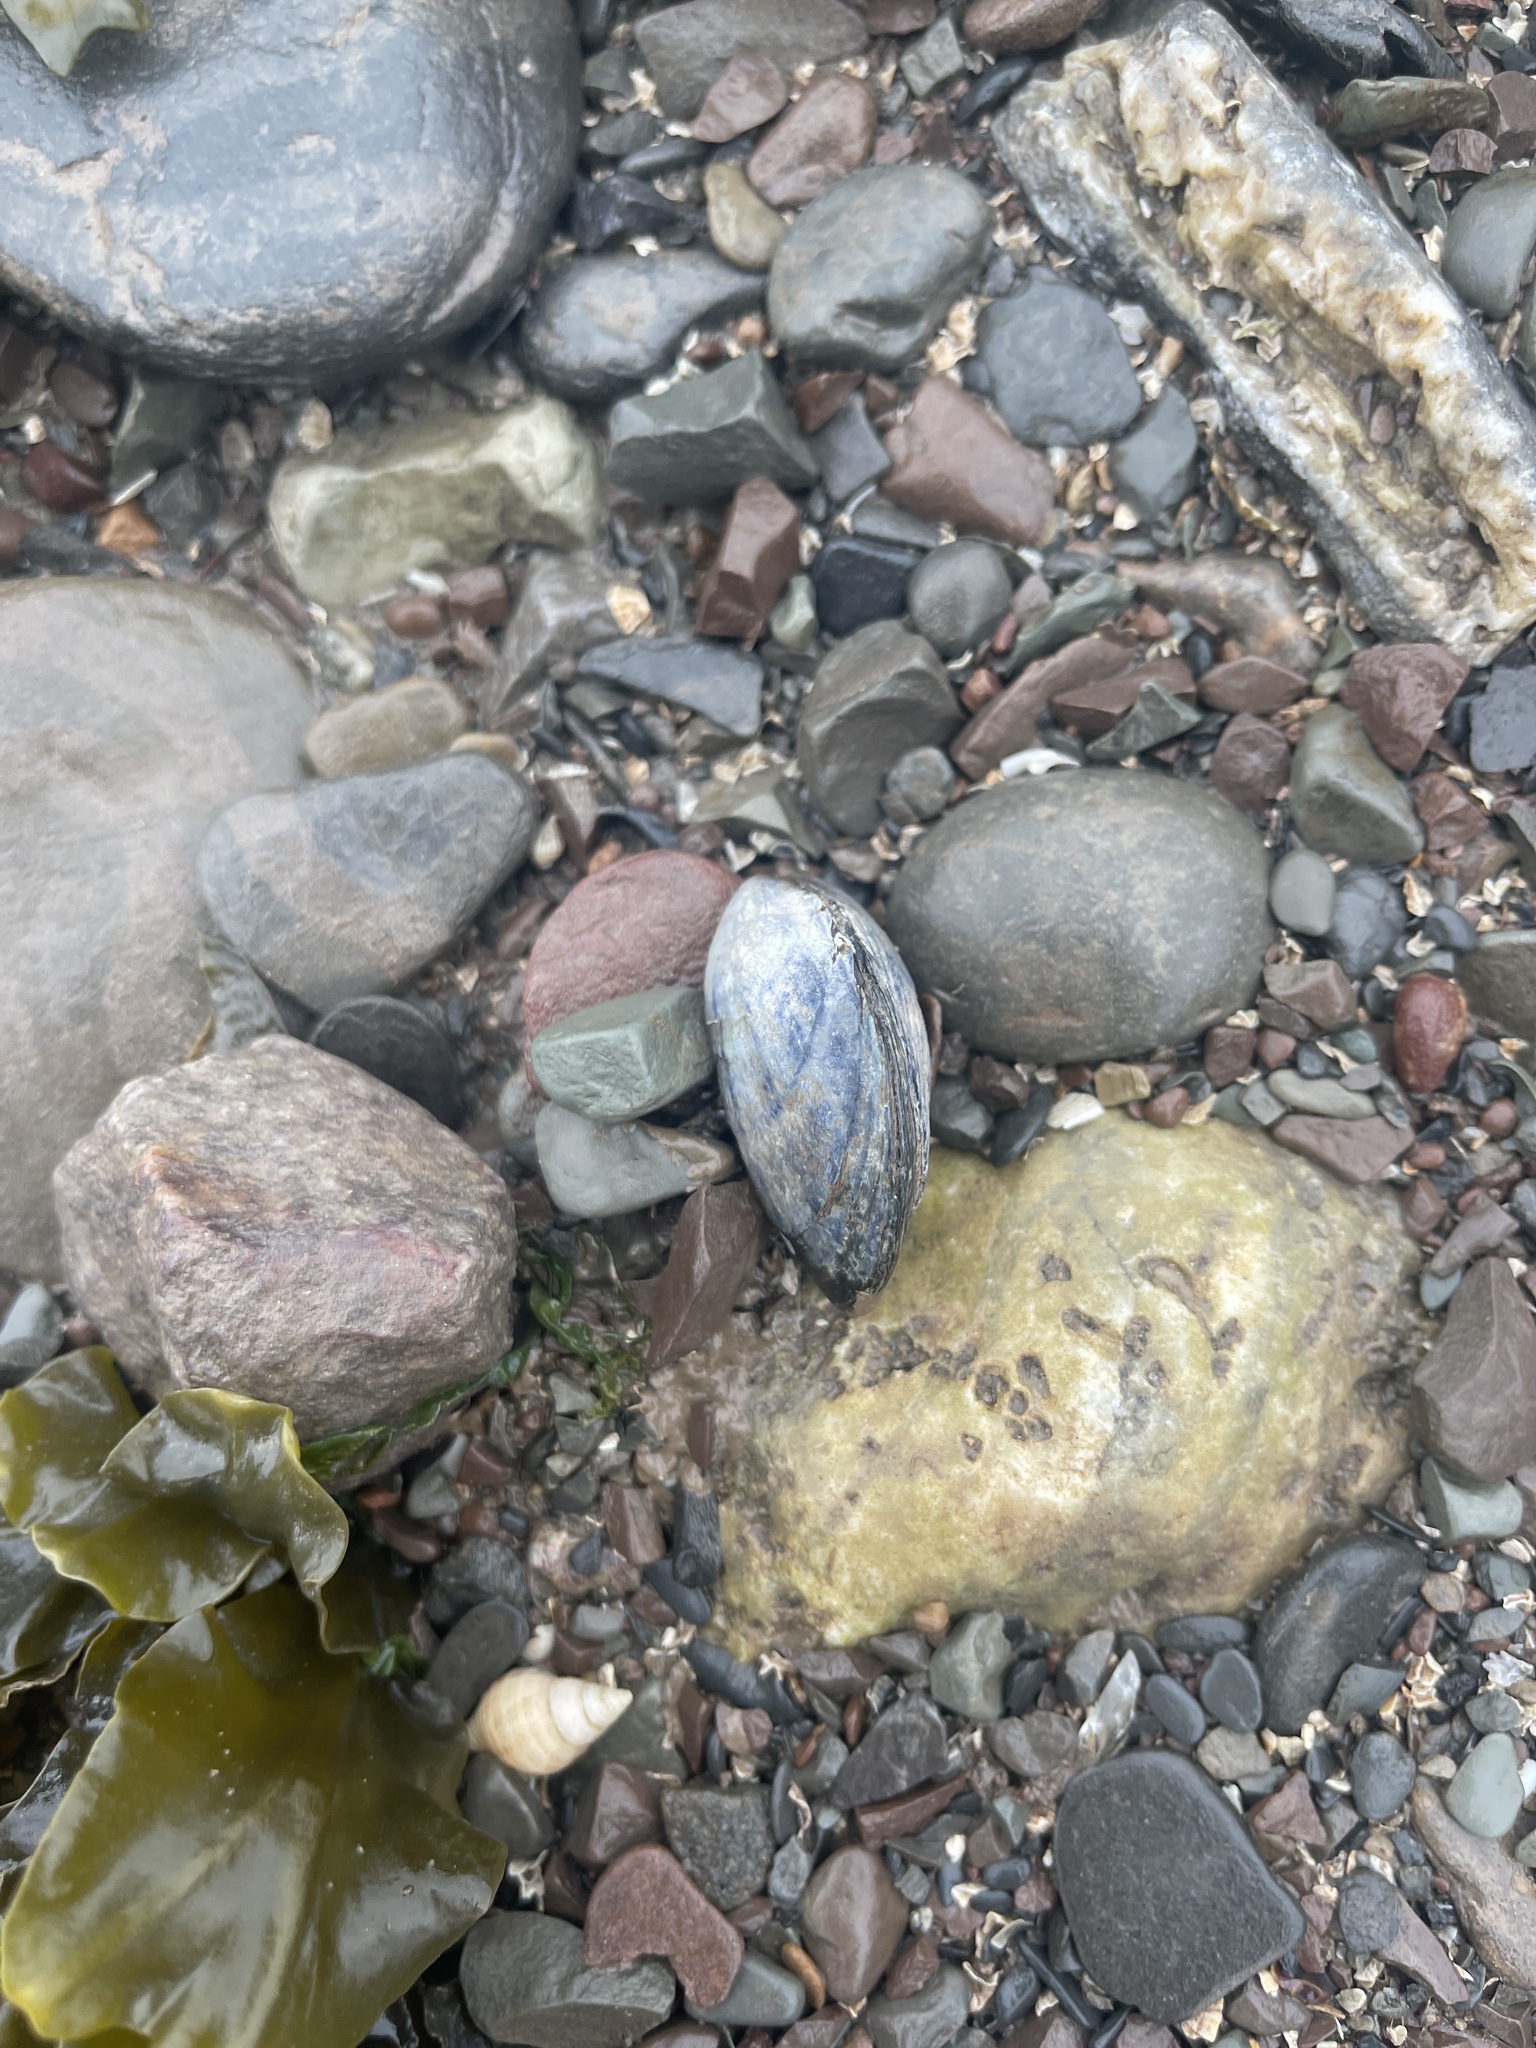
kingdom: Animalia
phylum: Mollusca
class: Bivalvia
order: Mytilida
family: Mytilidae
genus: Mytilus
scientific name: Mytilus edulis
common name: Blue mussel
